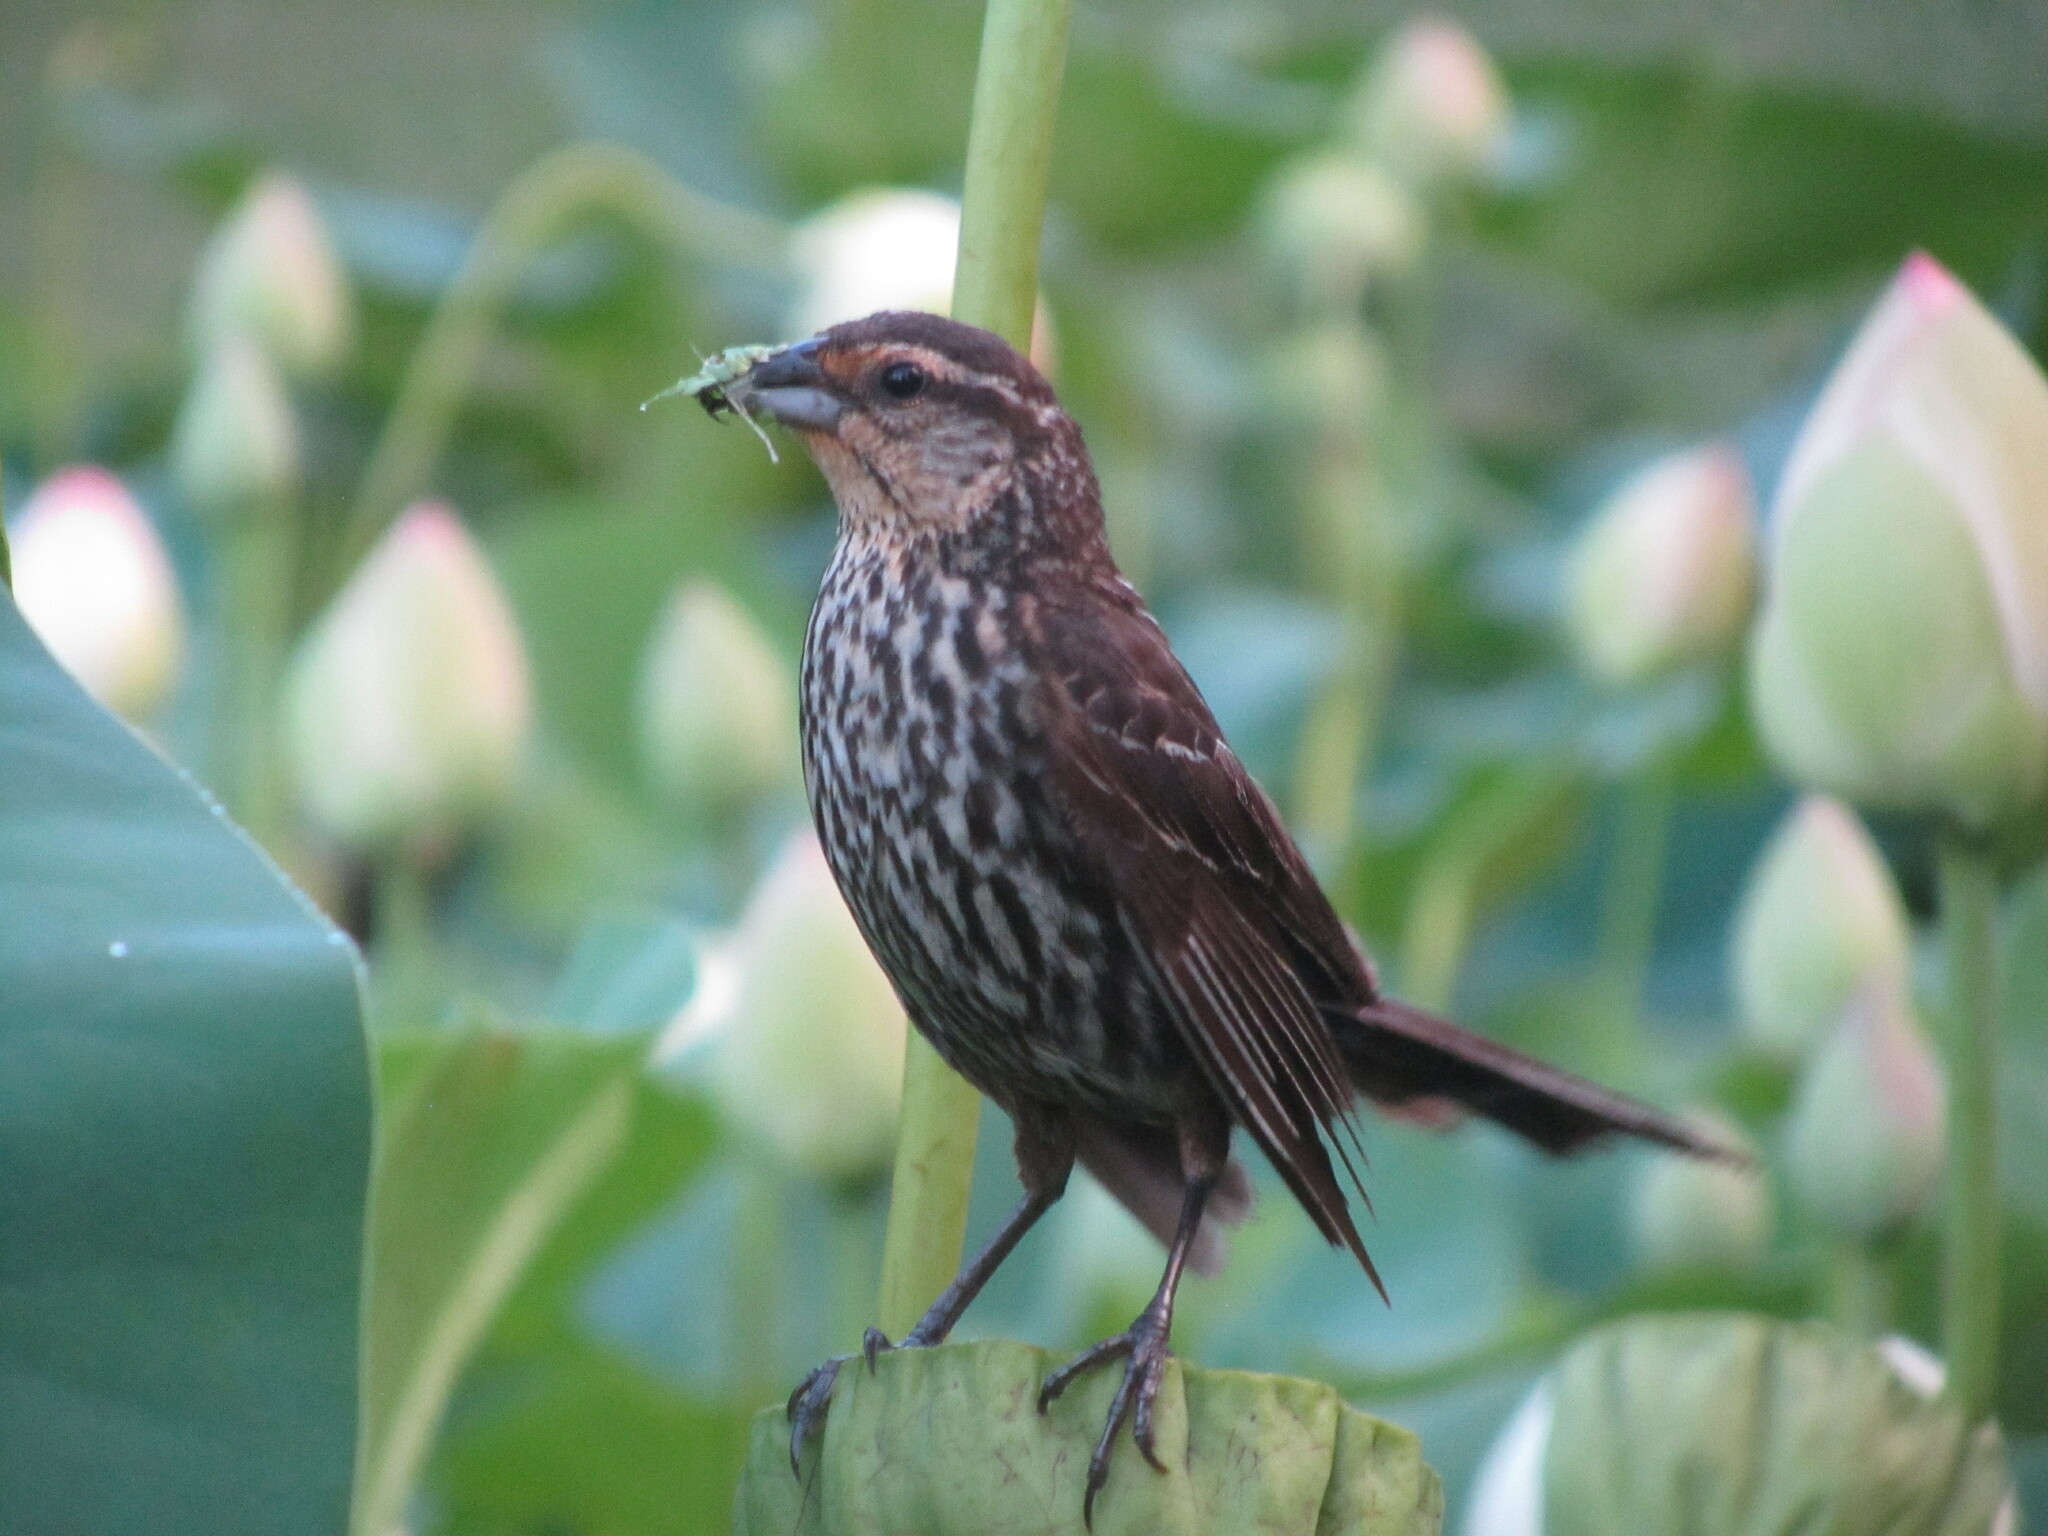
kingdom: Animalia
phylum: Chordata
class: Aves
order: Passeriformes
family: Icteridae
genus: Agelaius
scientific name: Agelaius phoeniceus
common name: Red-winged blackbird
